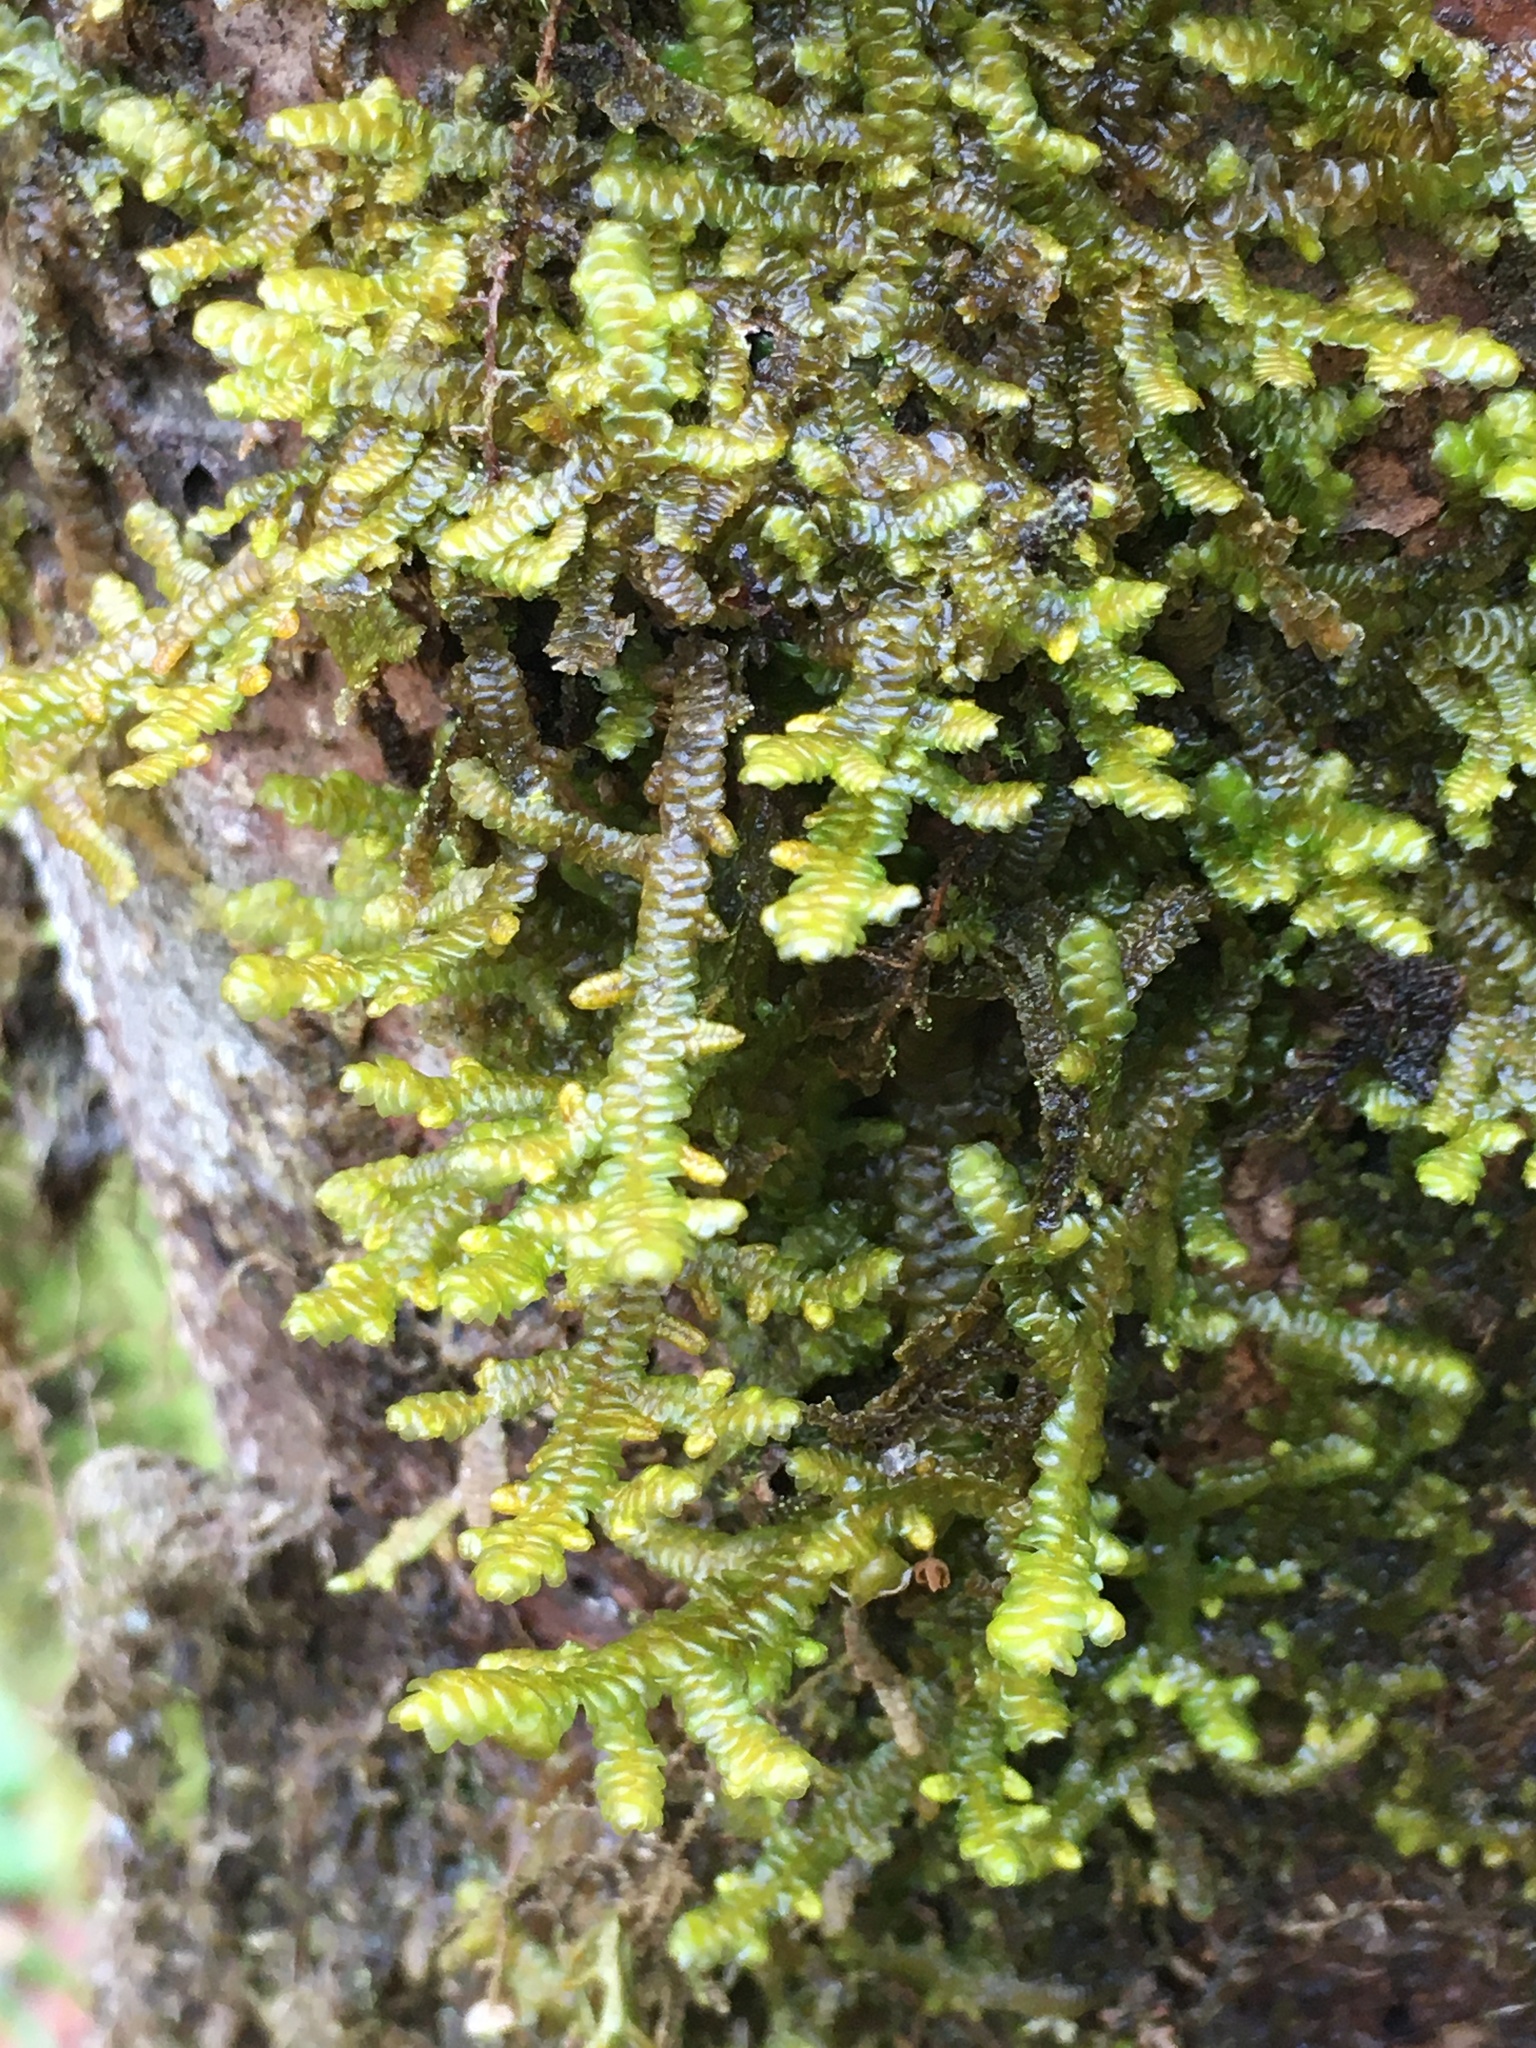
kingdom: Plantae
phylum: Marchantiophyta
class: Jungermanniopsida
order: Porellales
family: Porellaceae
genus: Porella
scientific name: Porella navicularis
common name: Tree ruffle liverwort
